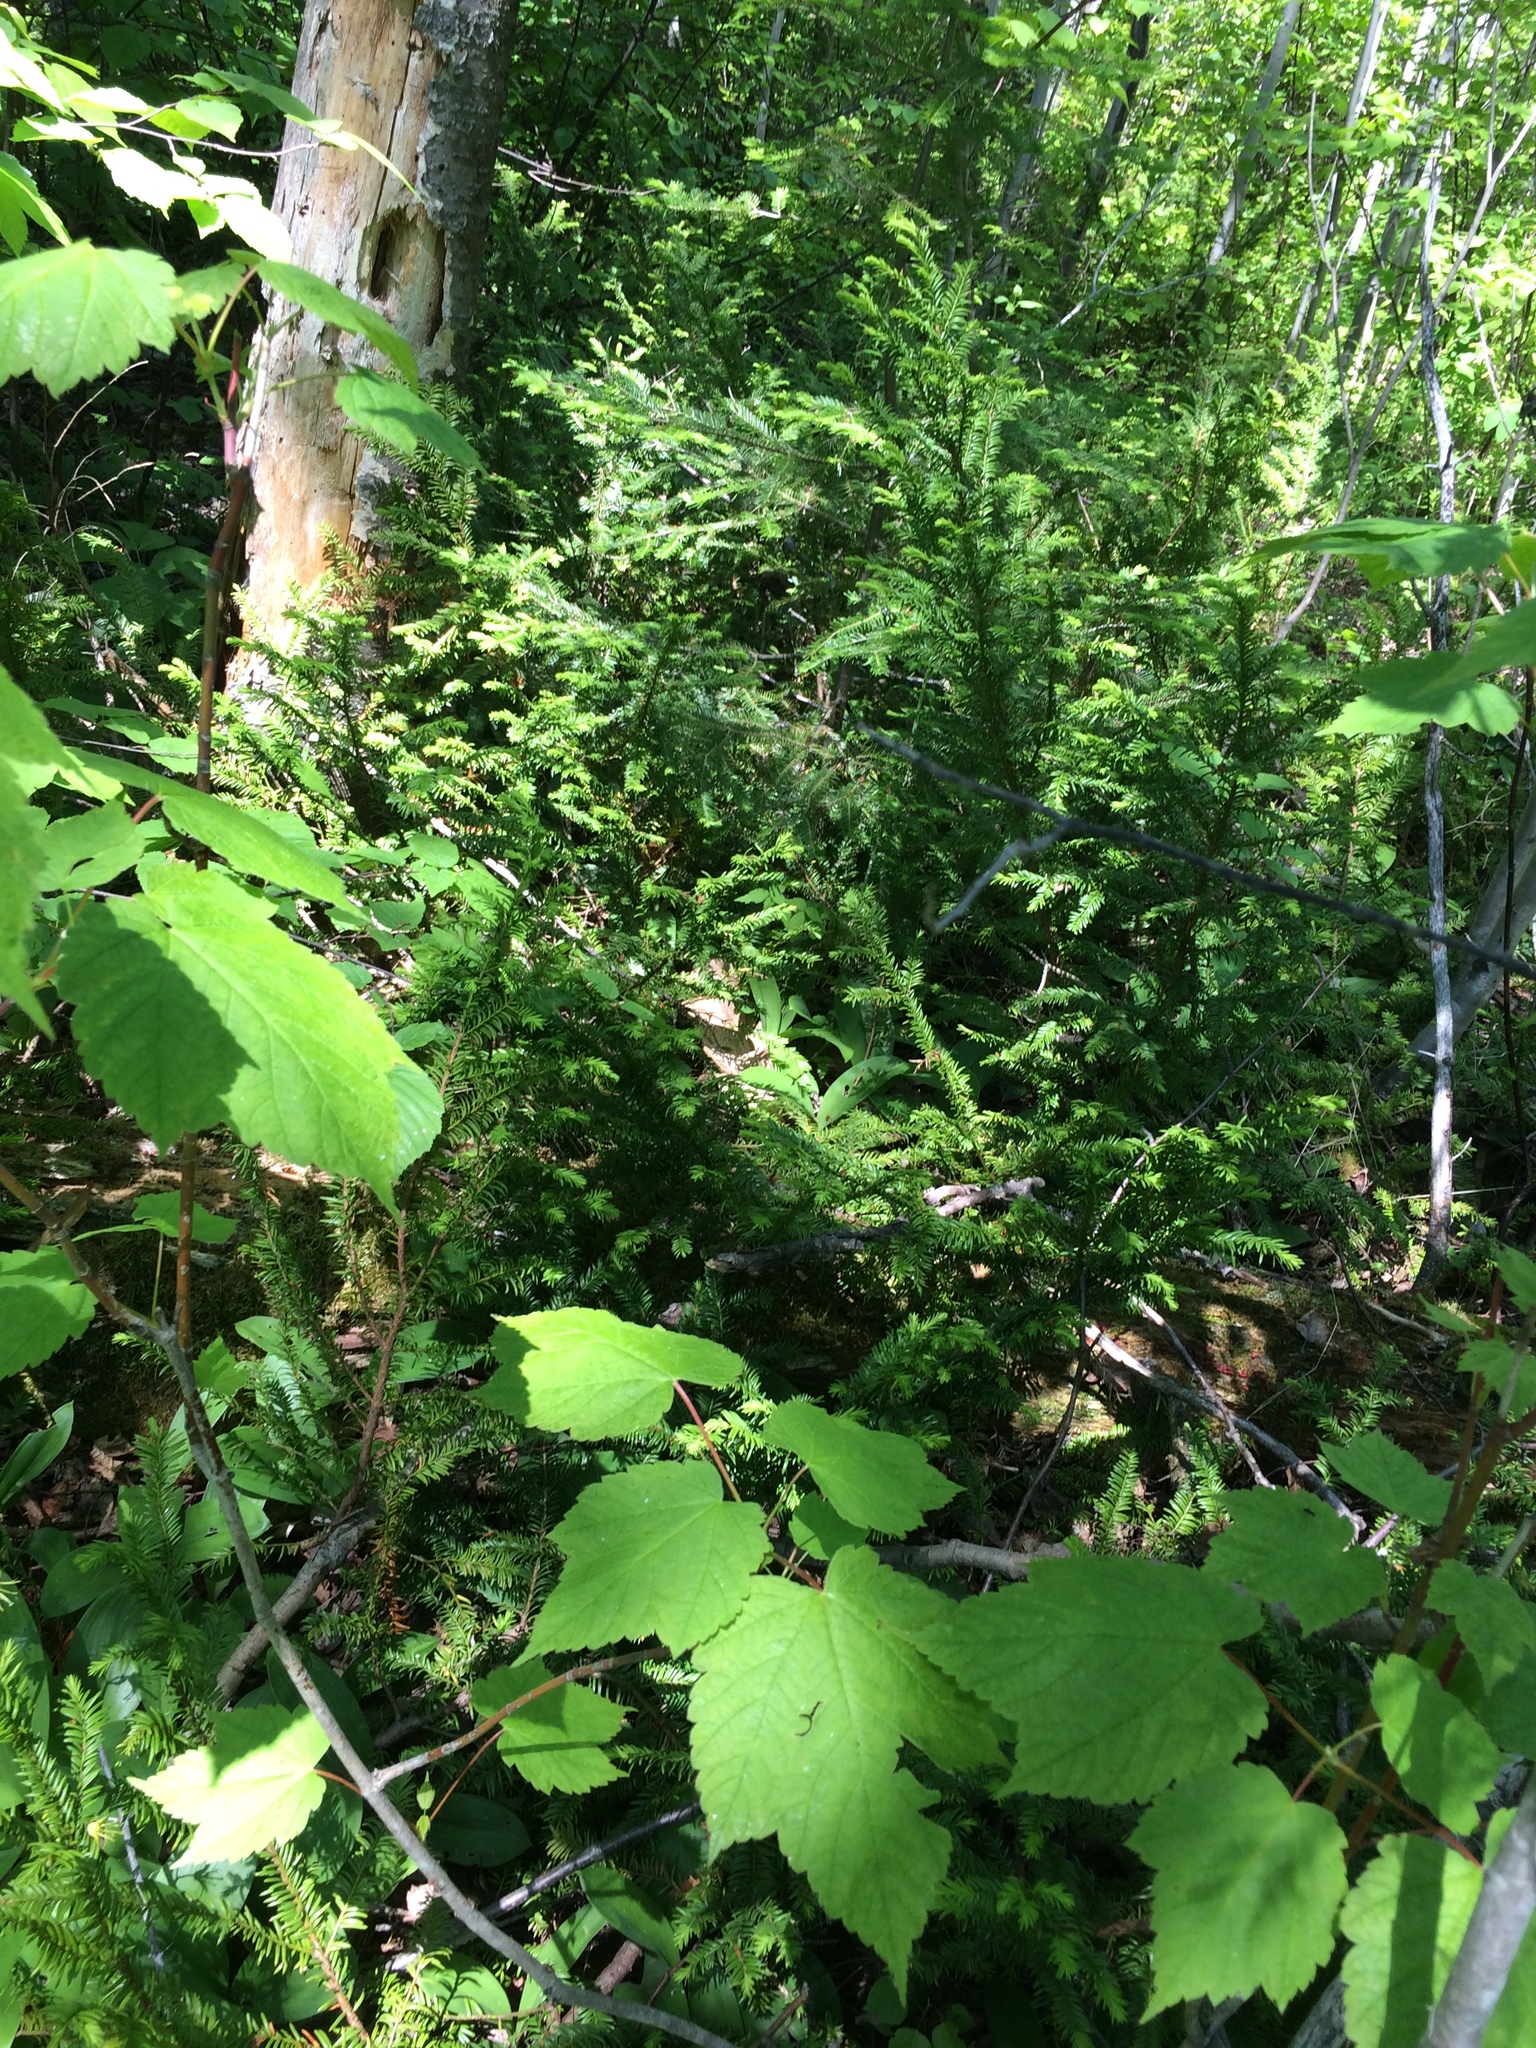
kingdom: Plantae
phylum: Tracheophyta
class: Magnoliopsida
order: Sapindales
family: Sapindaceae
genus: Acer
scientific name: Acer spicatum
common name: Mountain maple
